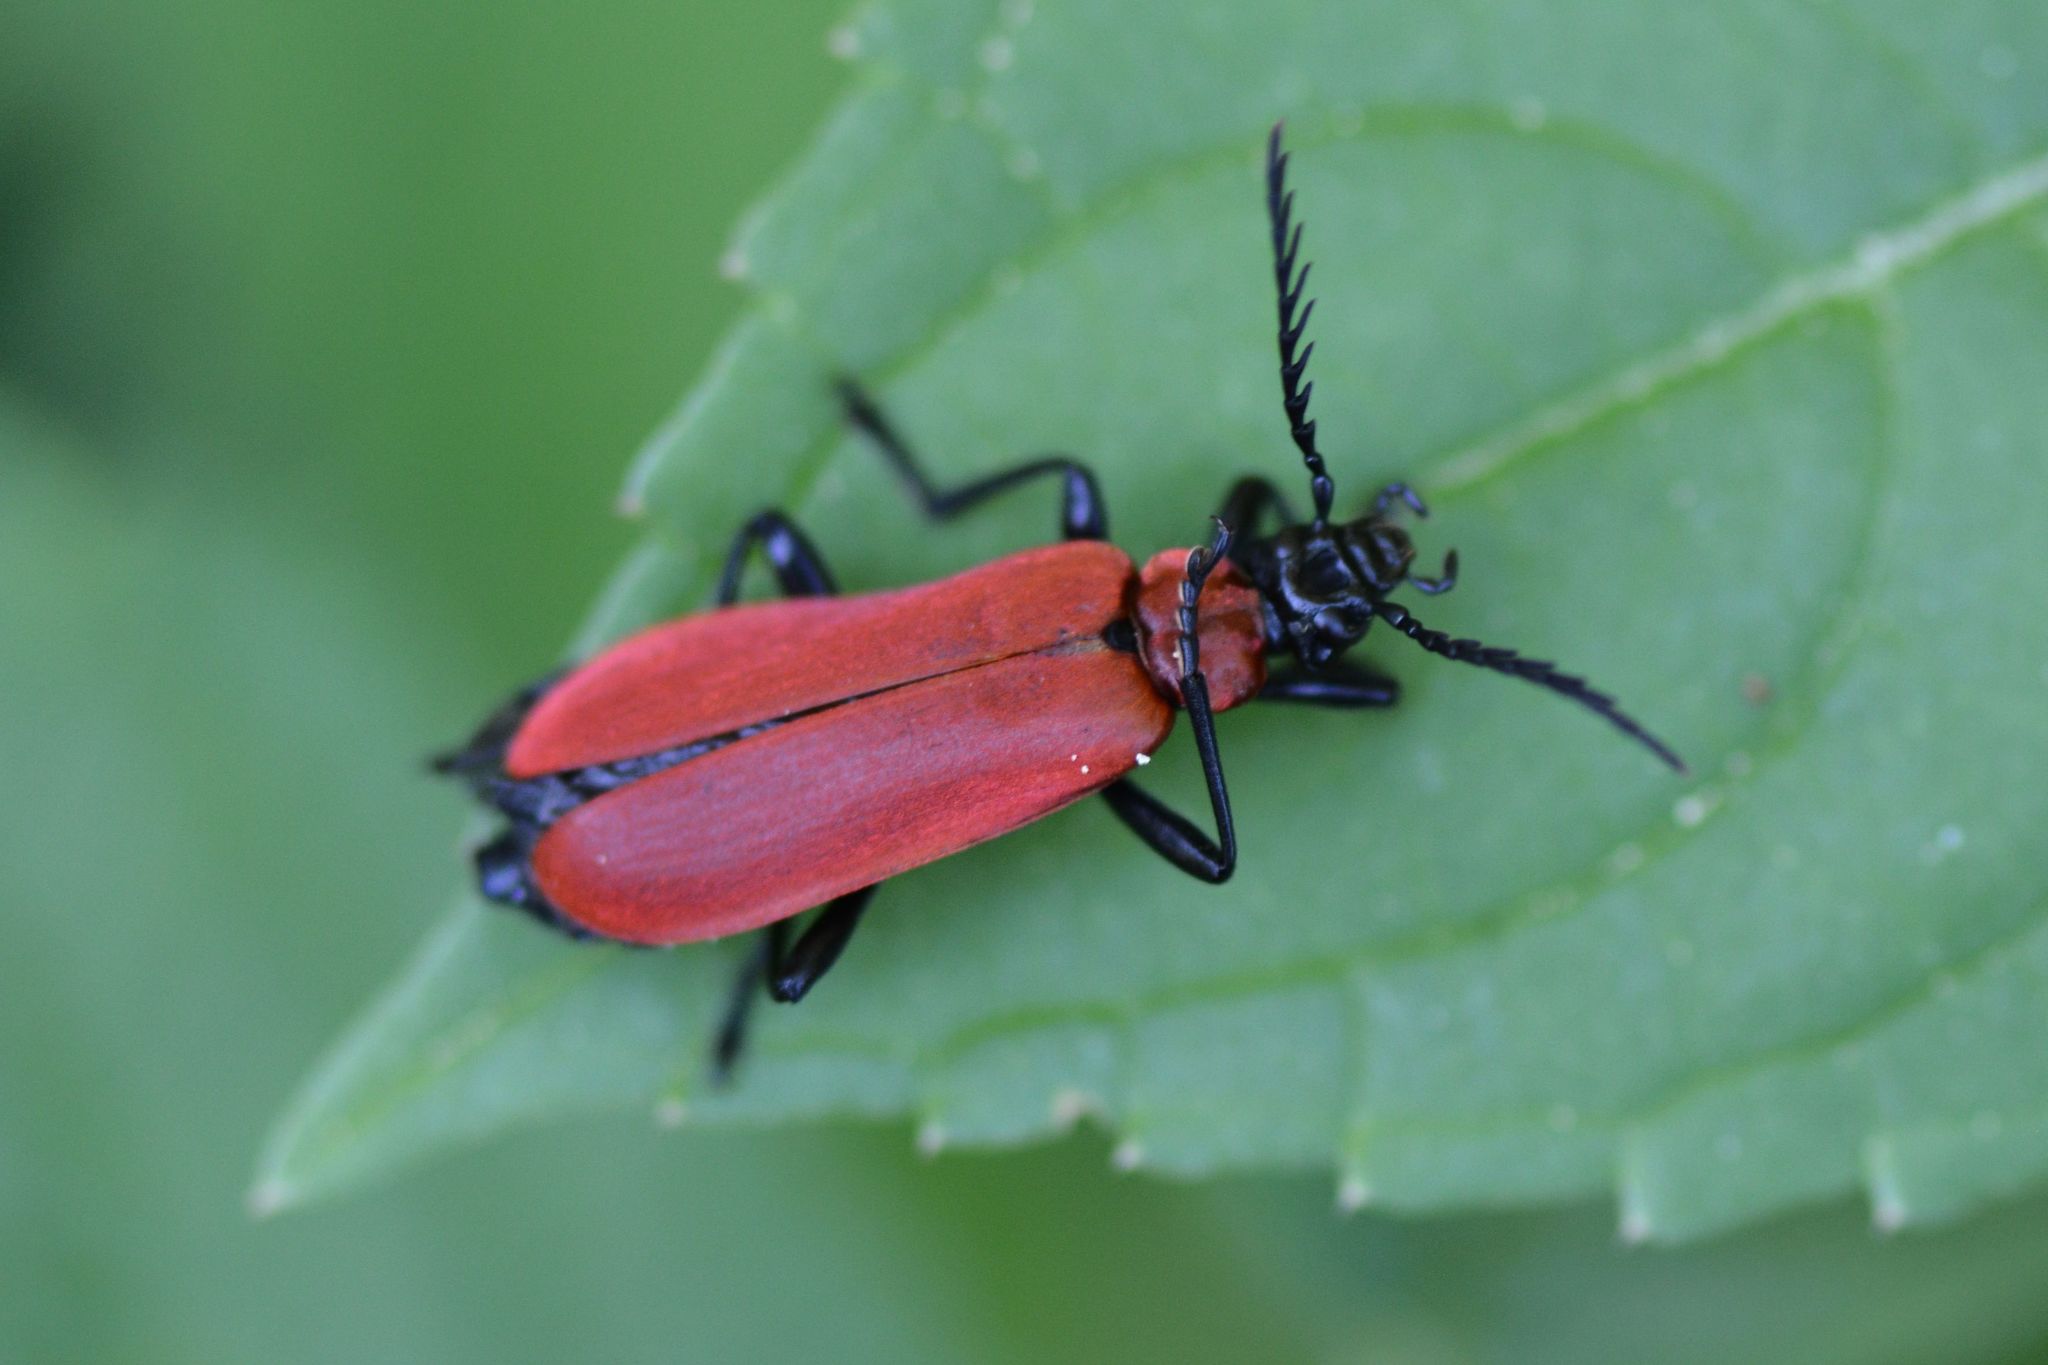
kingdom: Animalia
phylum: Arthropoda
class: Insecta
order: Coleoptera
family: Pyrochroidae
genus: Pyrochroa
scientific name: Pyrochroa coccinea
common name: Black-headed cardinal beetle
